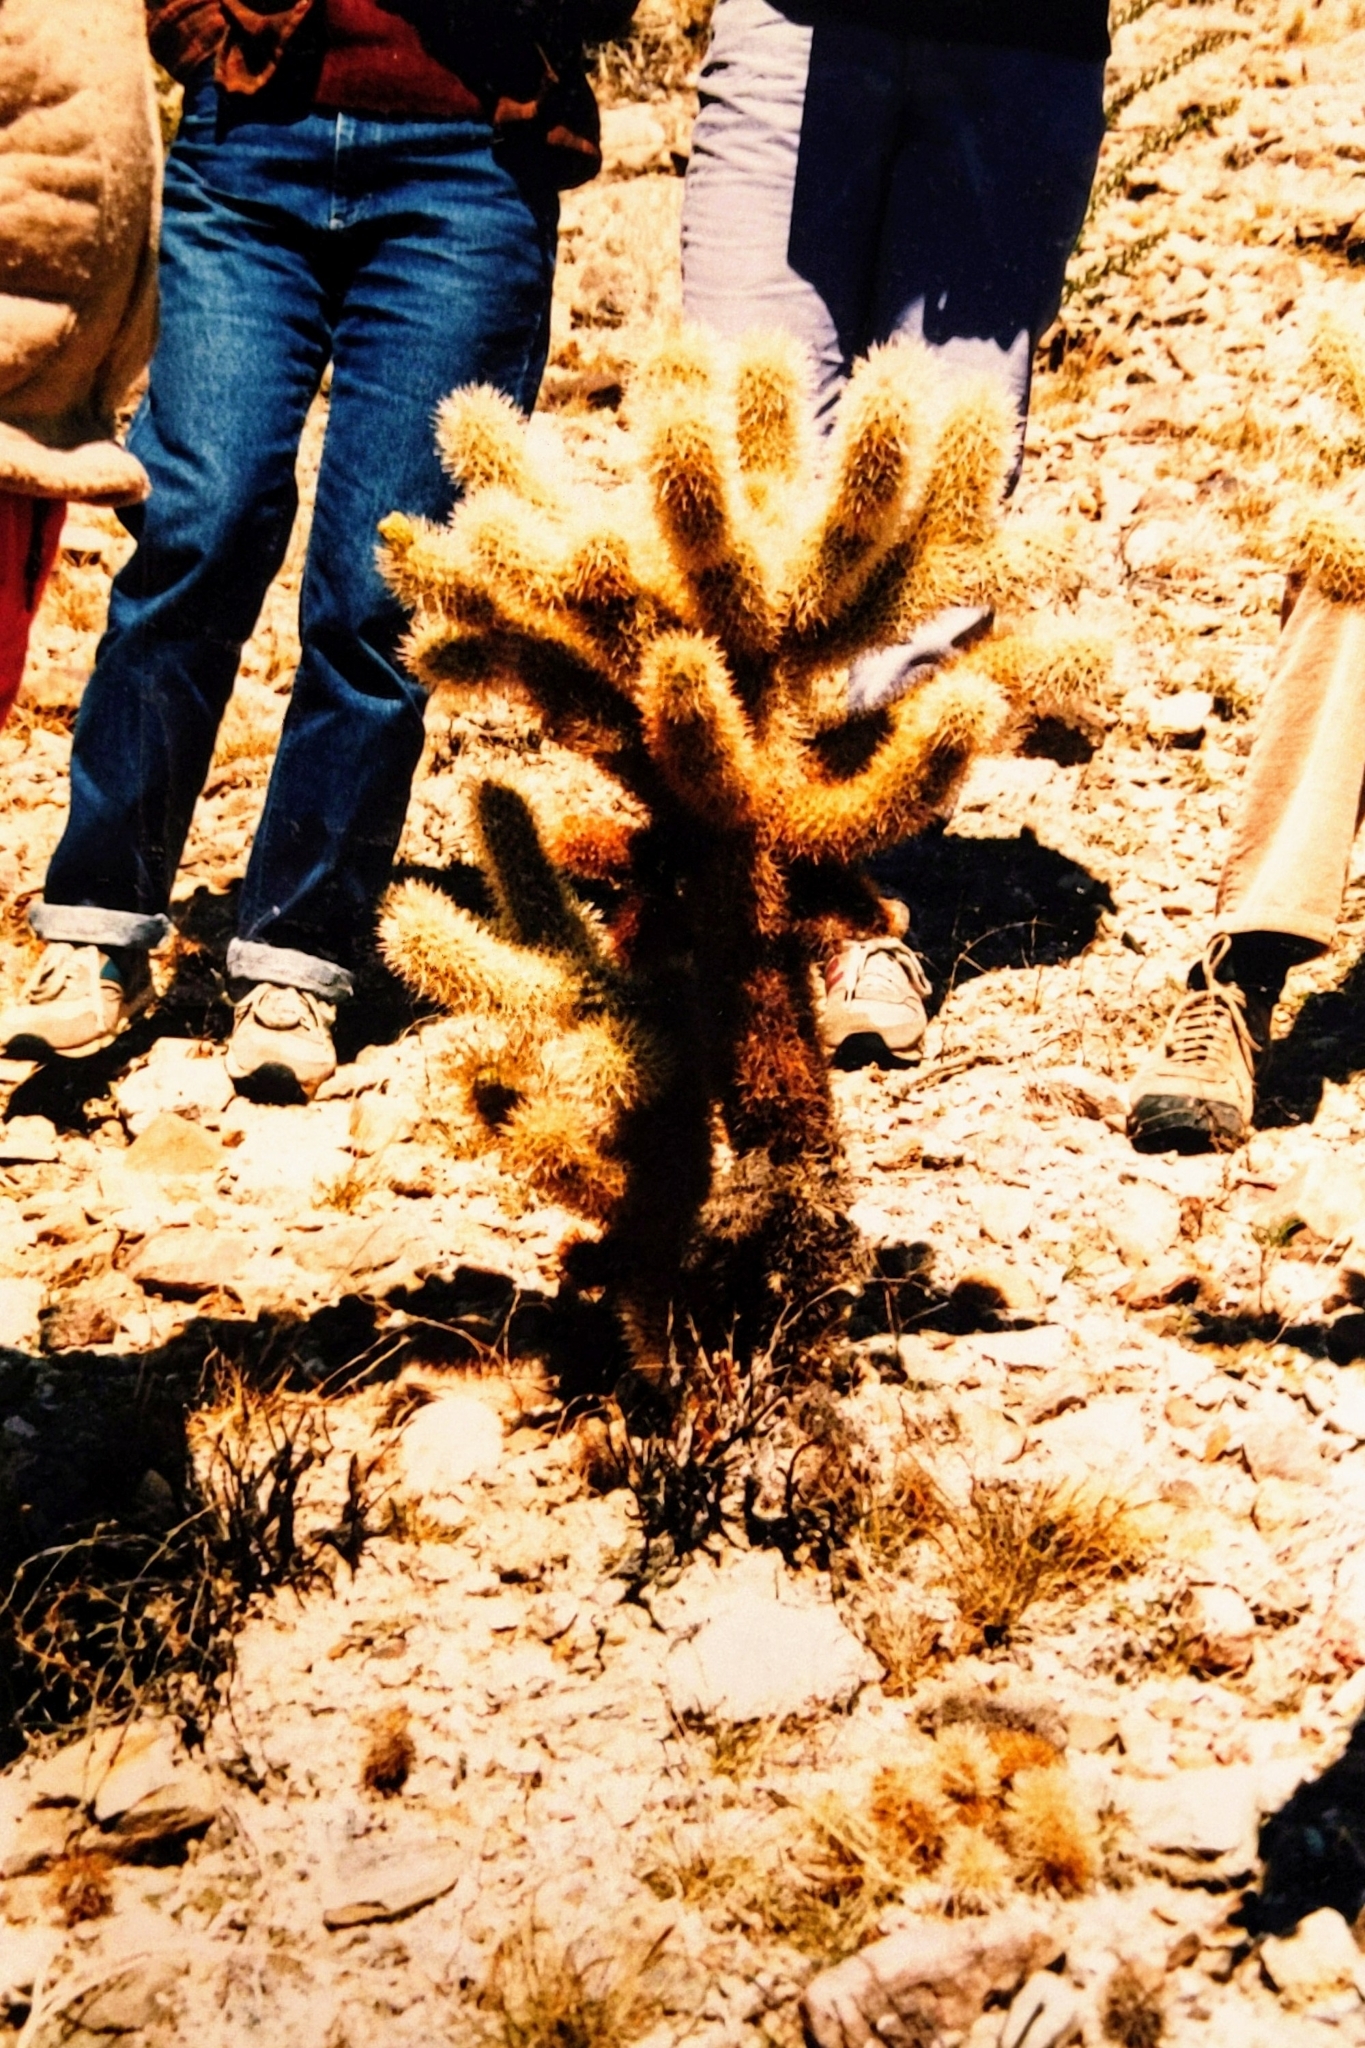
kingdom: Plantae
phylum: Tracheophyta
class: Magnoliopsida
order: Caryophyllales
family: Cactaceae
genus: Cylindropuntia
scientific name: Cylindropuntia fosbergii
